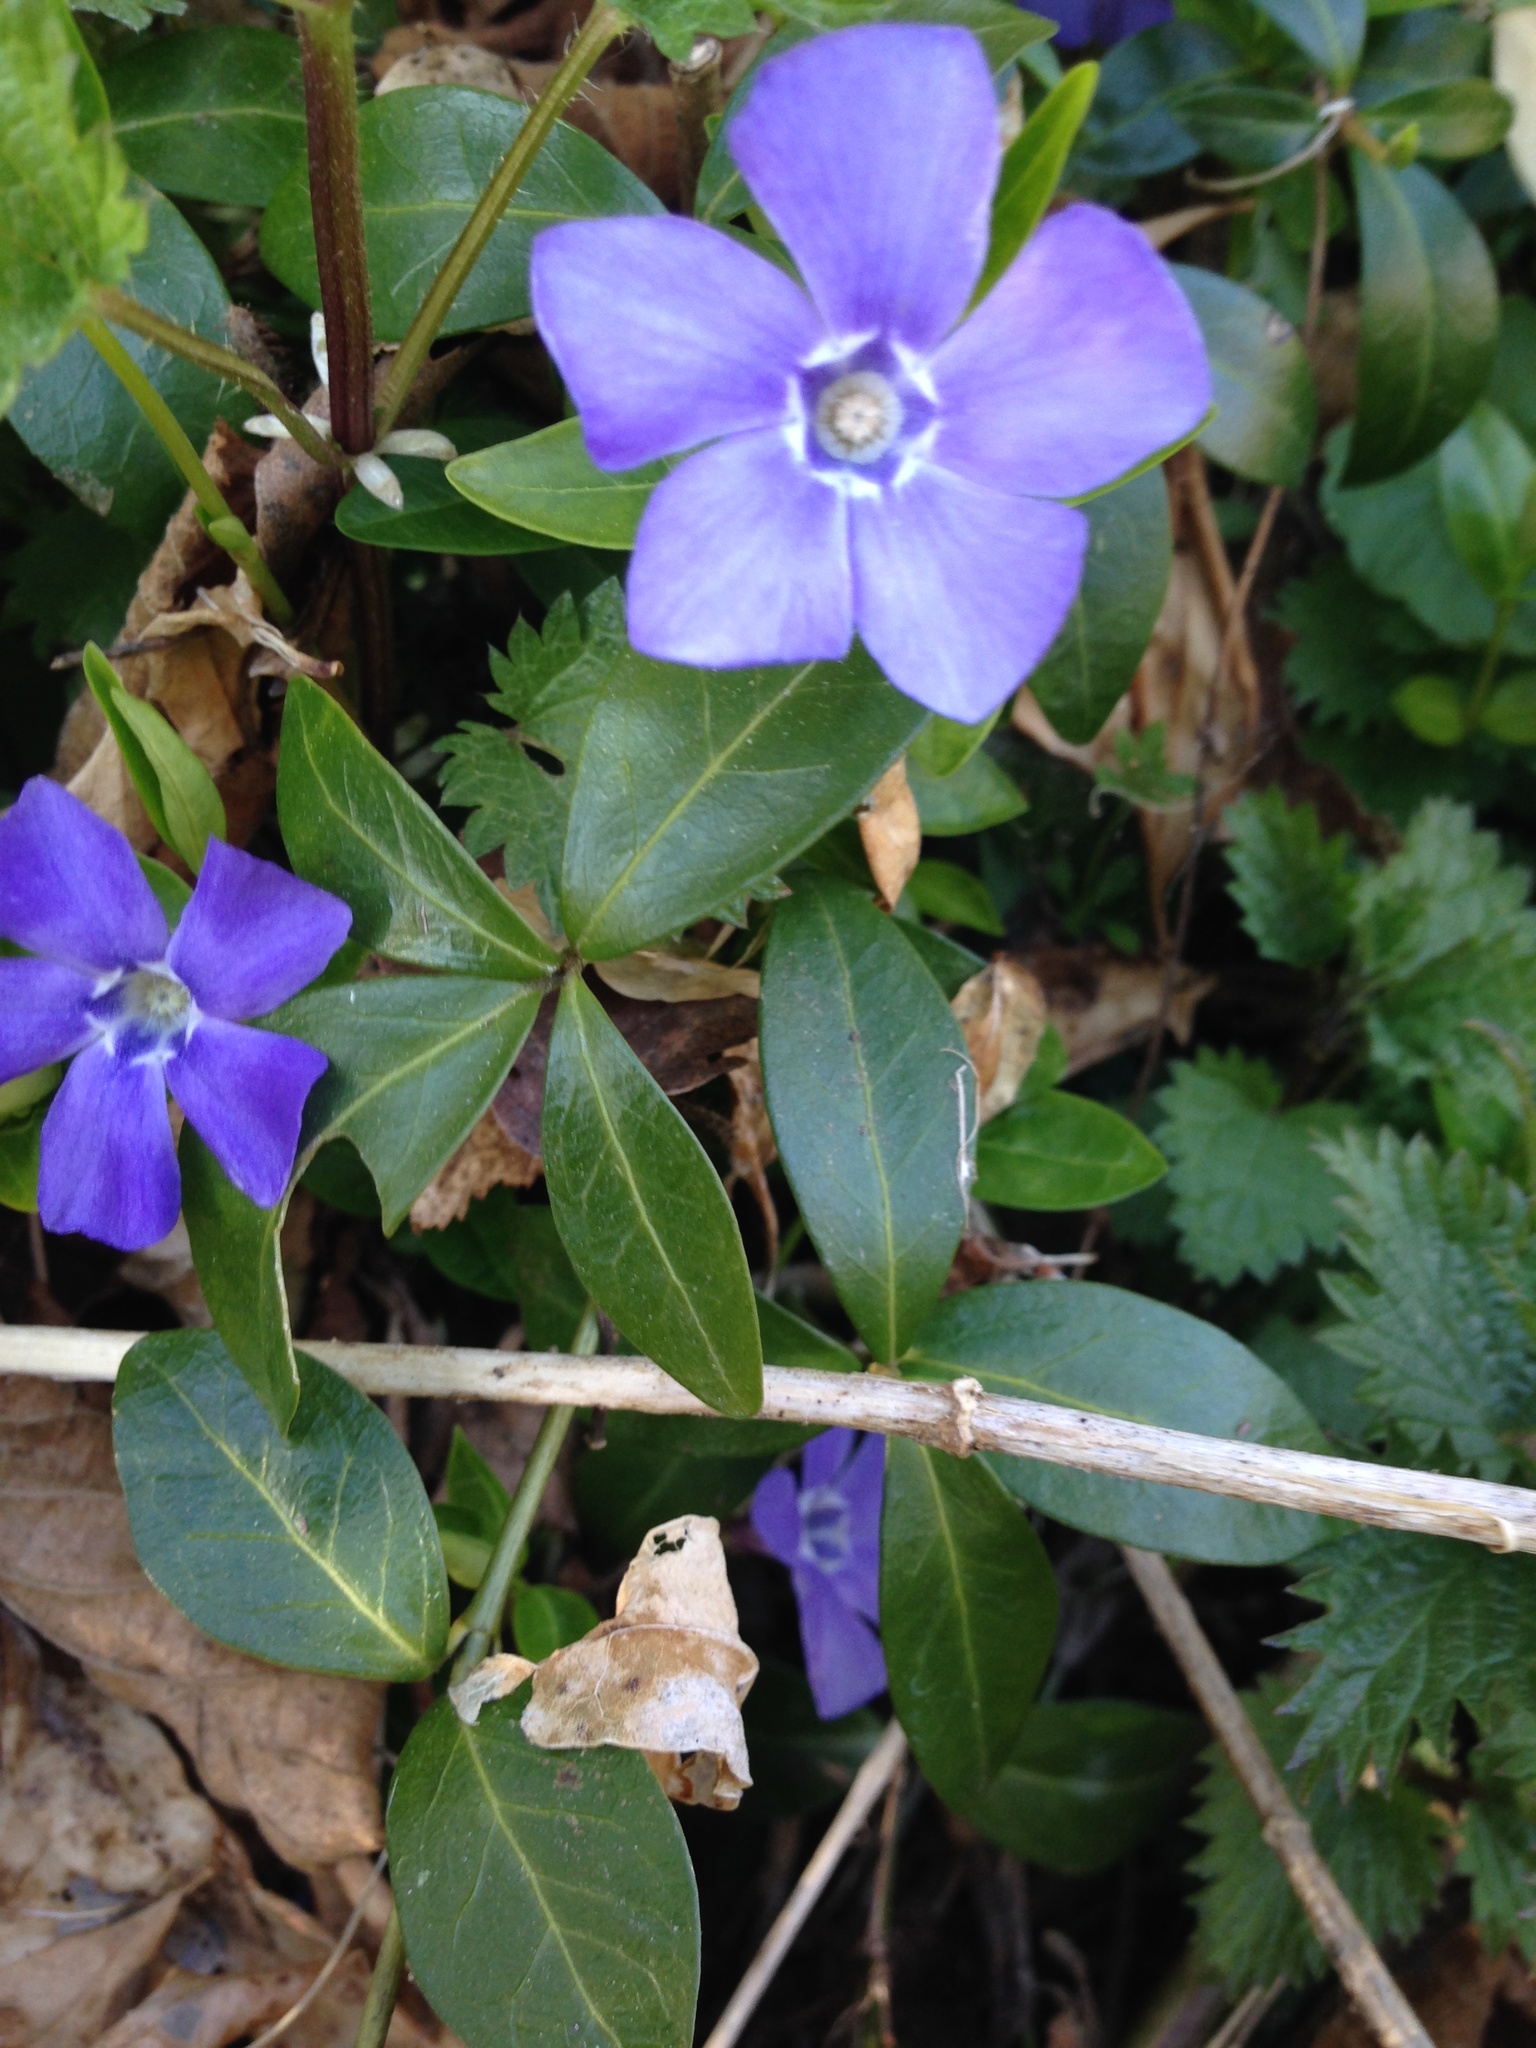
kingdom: Plantae
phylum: Tracheophyta
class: Magnoliopsida
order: Gentianales
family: Apocynaceae
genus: Vinca
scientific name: Vinca minor
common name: Lesser periwinkle
